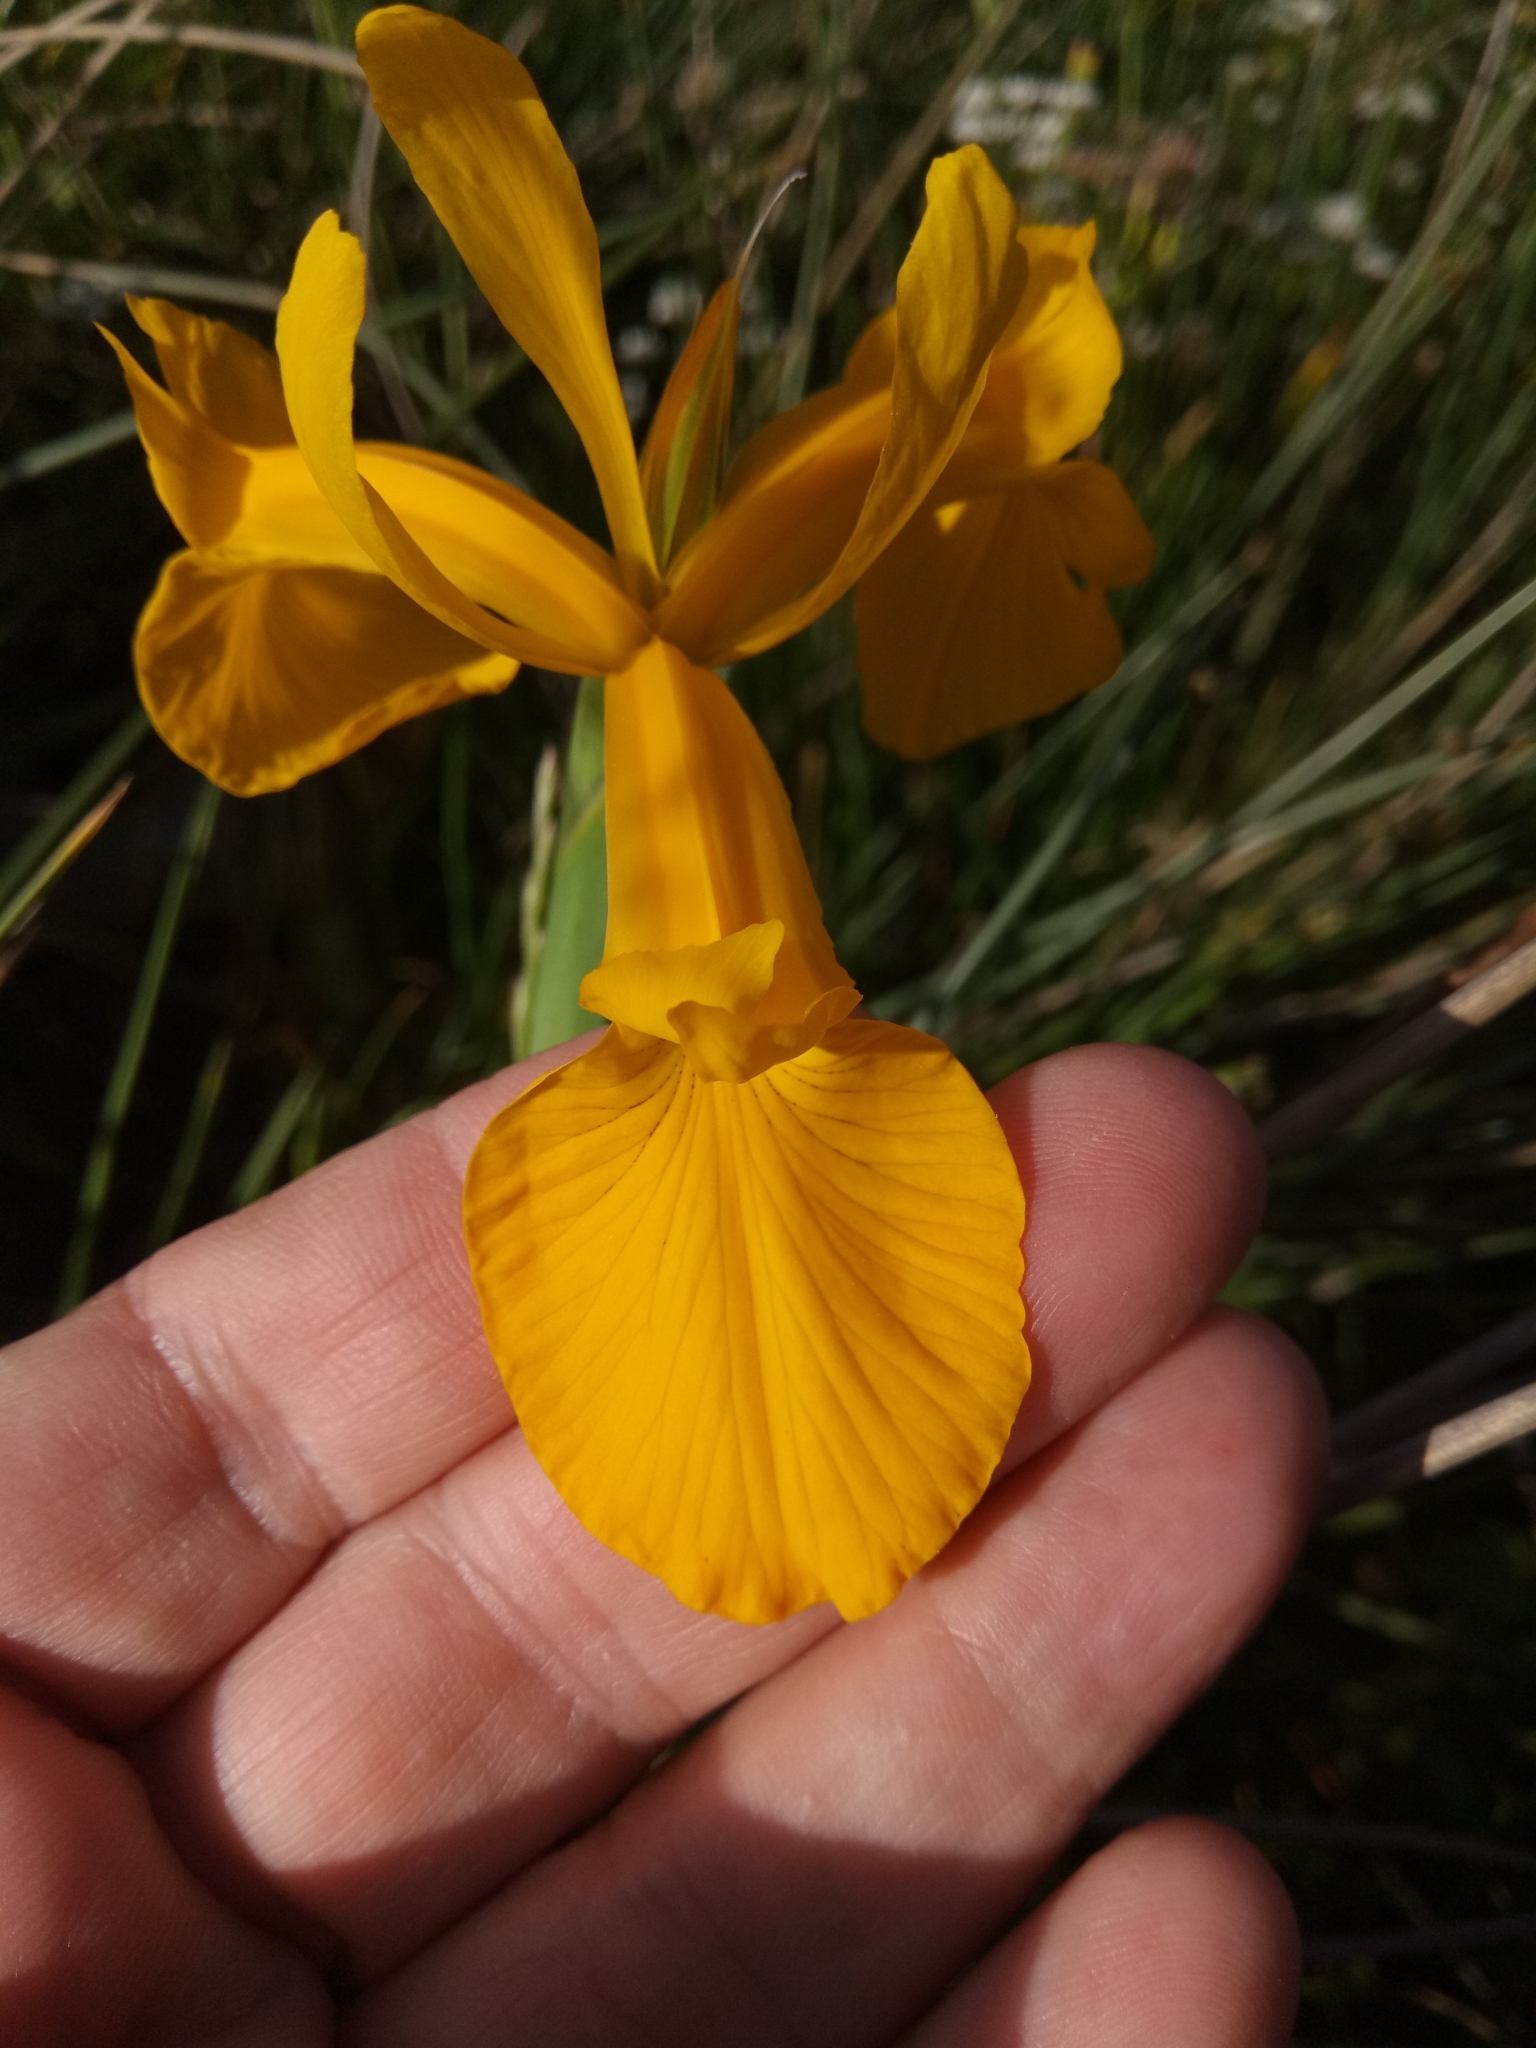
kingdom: Plantae
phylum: Tracheophyta
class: Liliopsida
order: Asparagales
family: Iridaceae
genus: Iris
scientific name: Iris juncea
